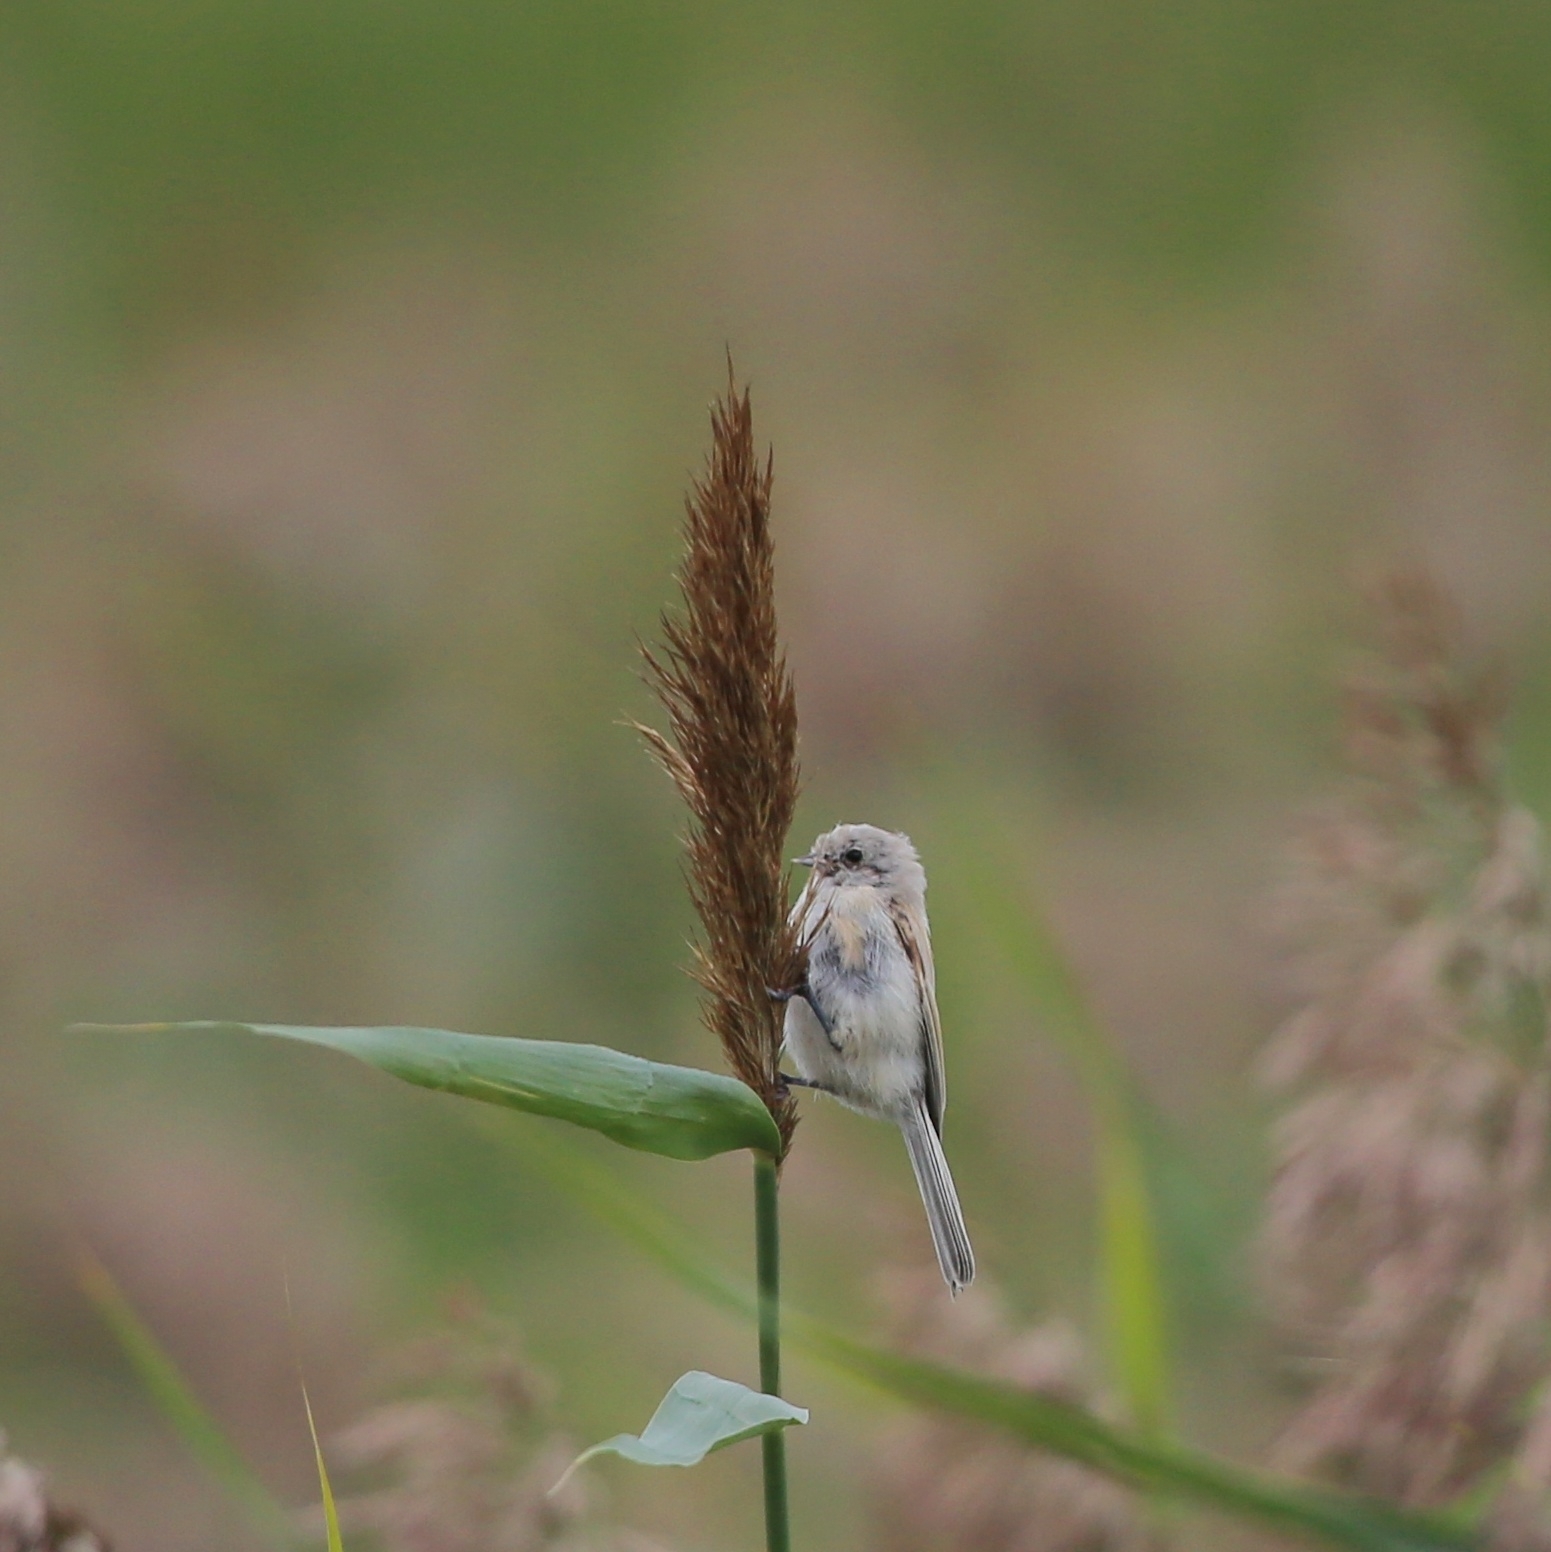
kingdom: Animalia
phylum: Chordata
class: Aves
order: Passeriformes
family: Remizidae
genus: Remiz
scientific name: Remiz pendulinus
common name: Eurasian penduline tit
